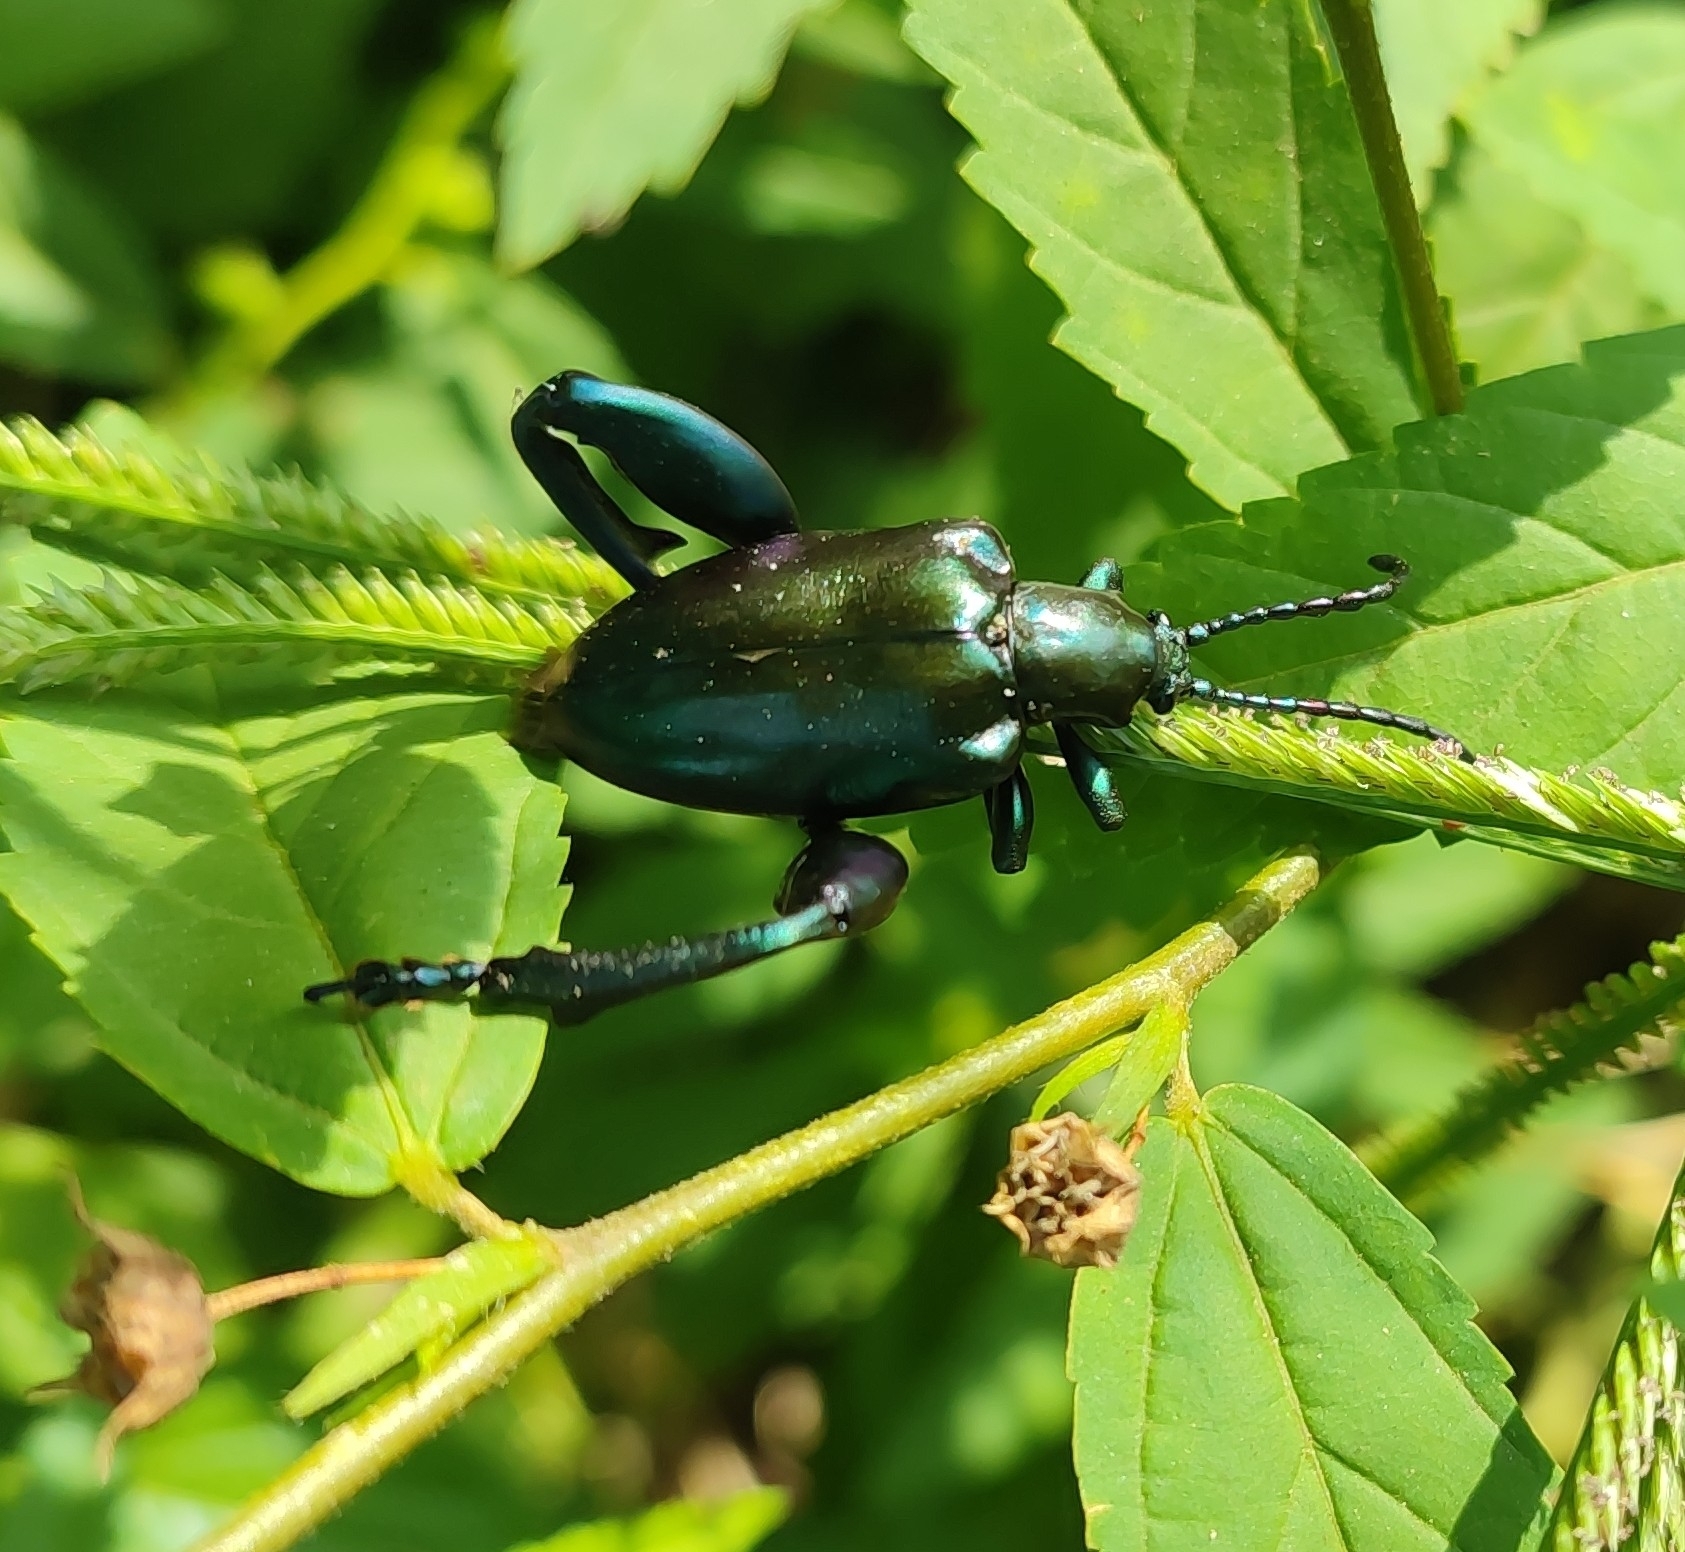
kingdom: Animalia
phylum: Arthropoda
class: Insecta
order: Coleoptera
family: Chrysomelidae
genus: Sagra
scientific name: Sagra femorata
